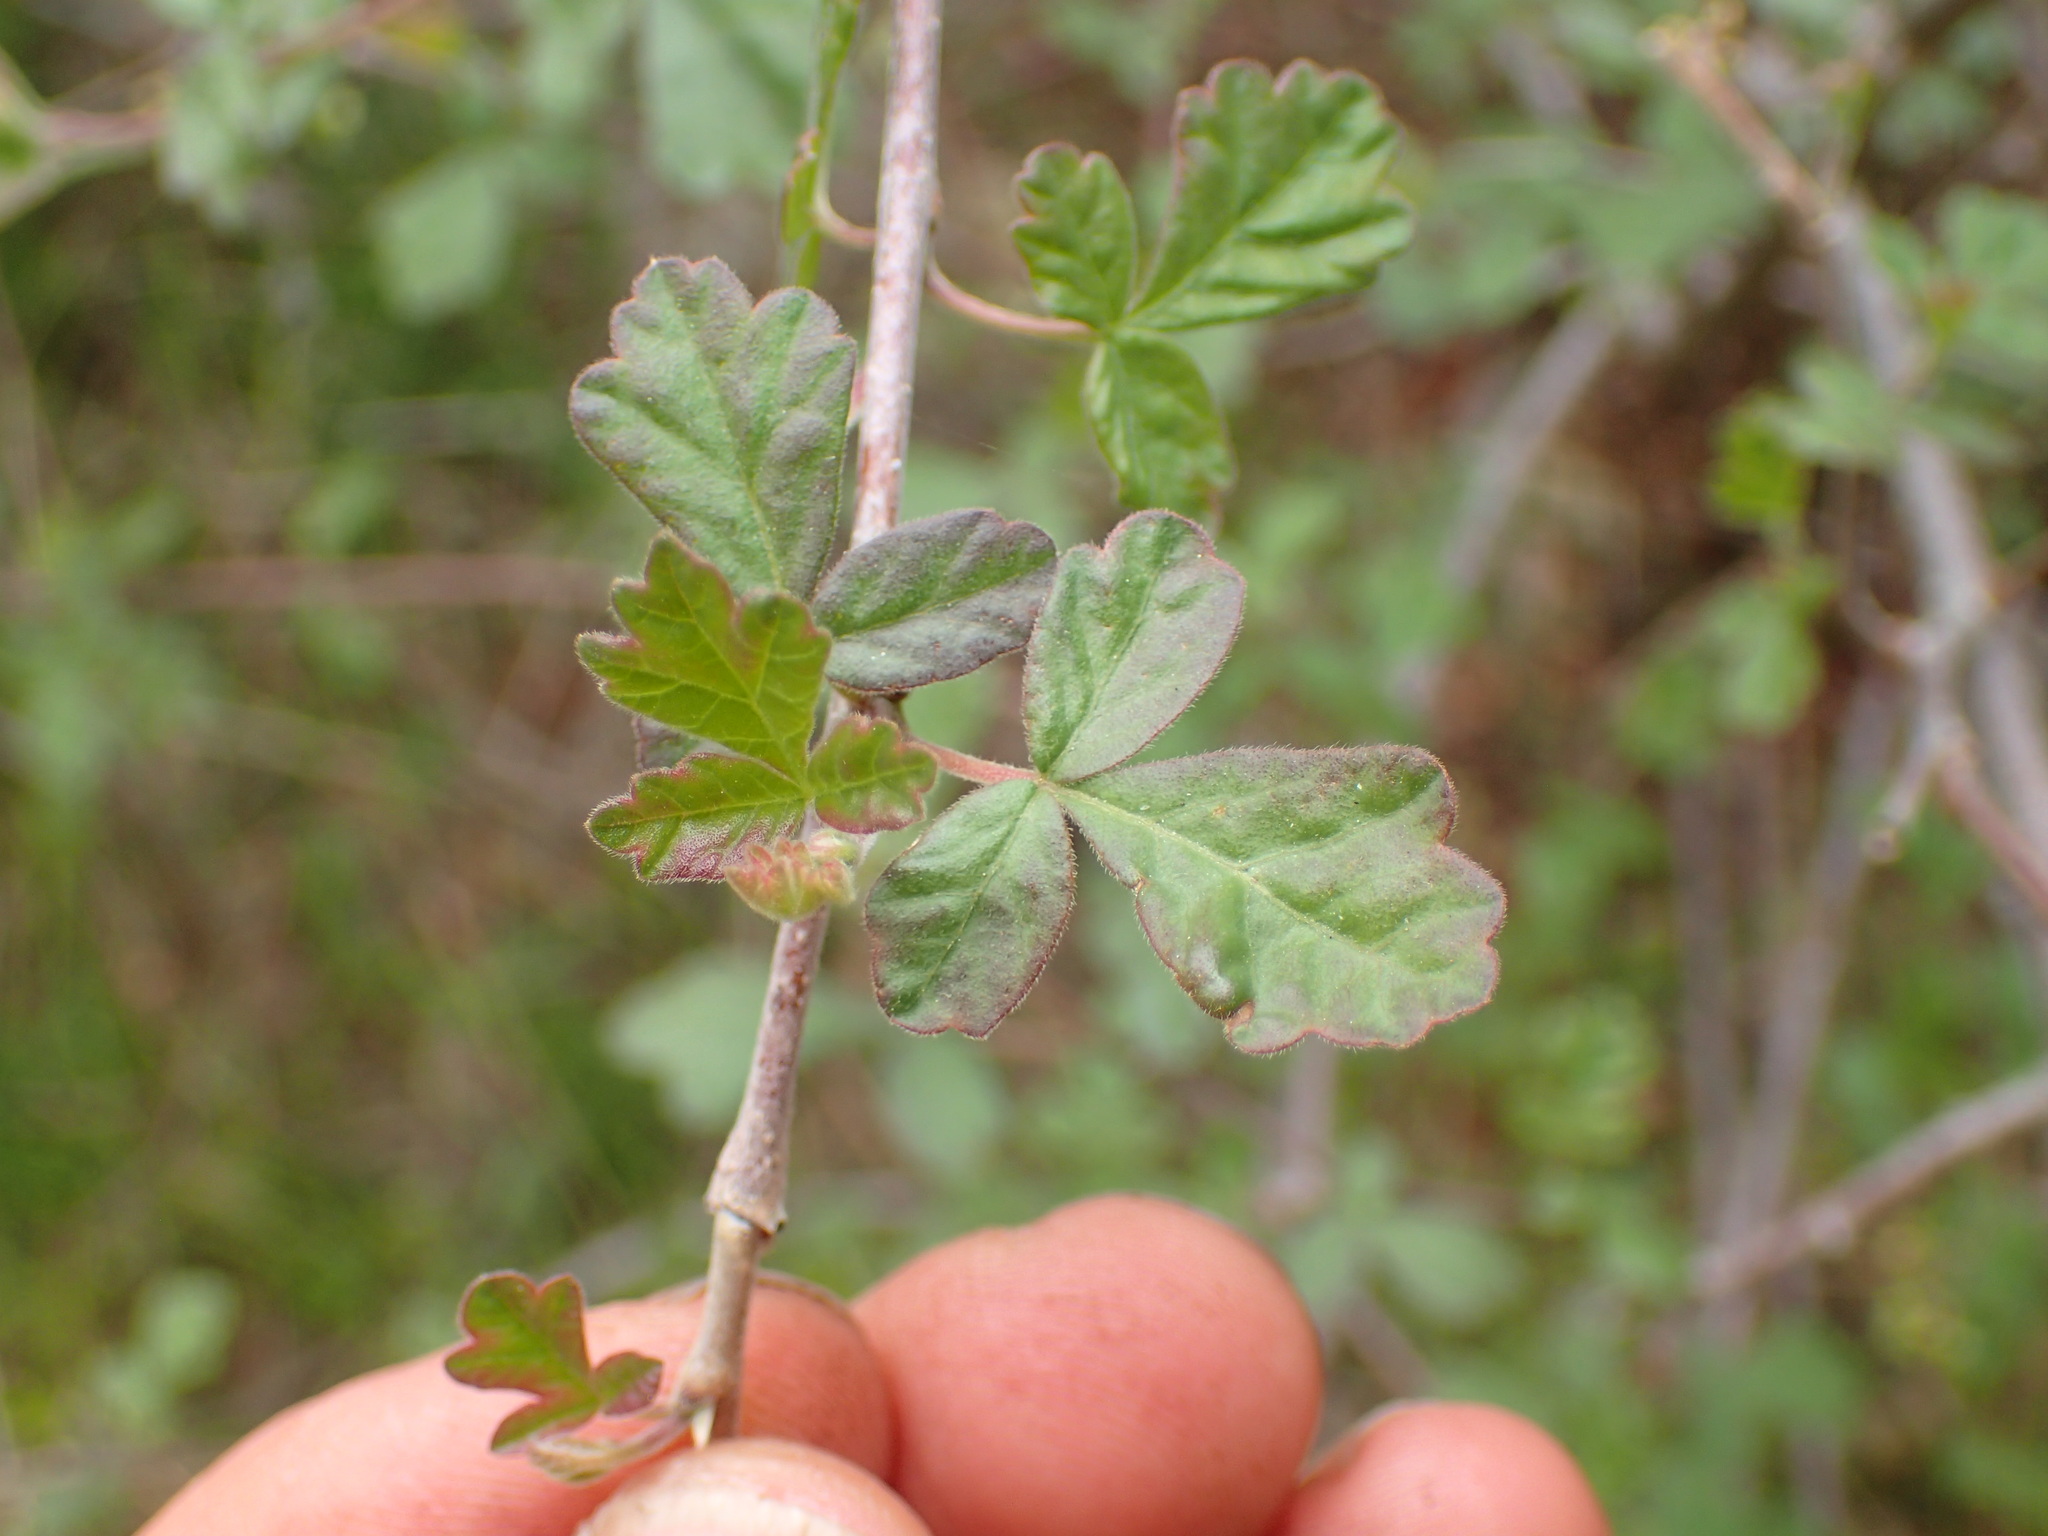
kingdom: Plantae
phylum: Tracheophyta
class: Magnoliopsida
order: Sapindales
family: Anacardiaceae
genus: Rhus
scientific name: Rhus aromatica
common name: Aromatic sumac
